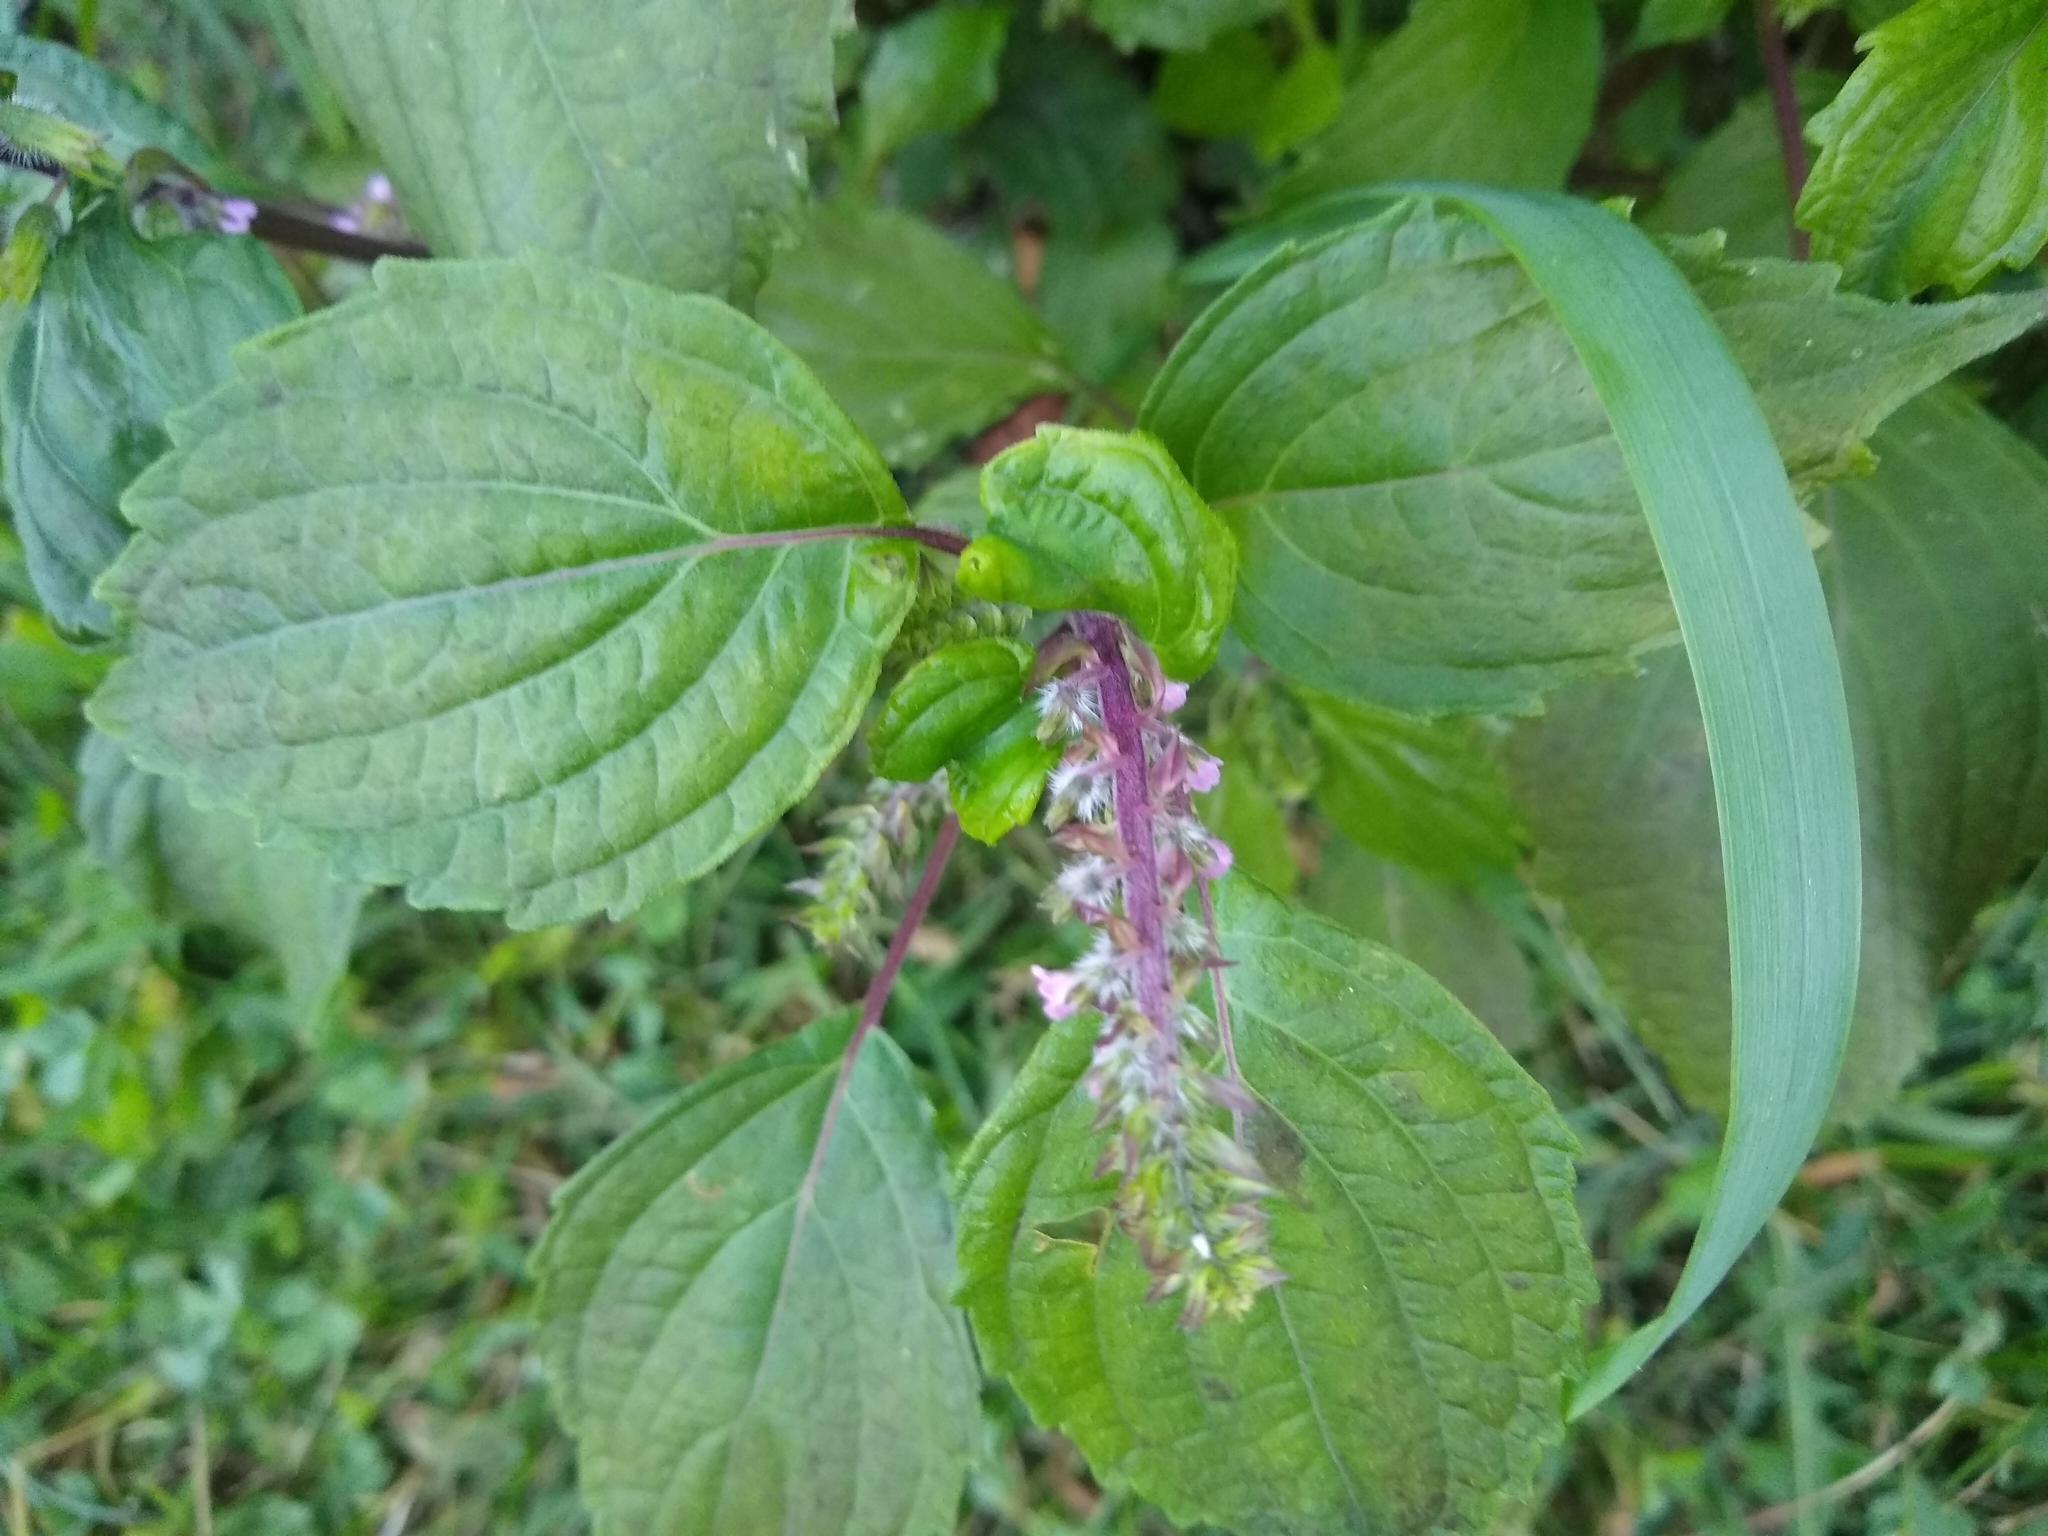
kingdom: Plantae
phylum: Tracheophyta
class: Magnoliopsida
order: Lamiales
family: Lamiaceae
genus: Perilla
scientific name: Perilla frutescens
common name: Perilla
